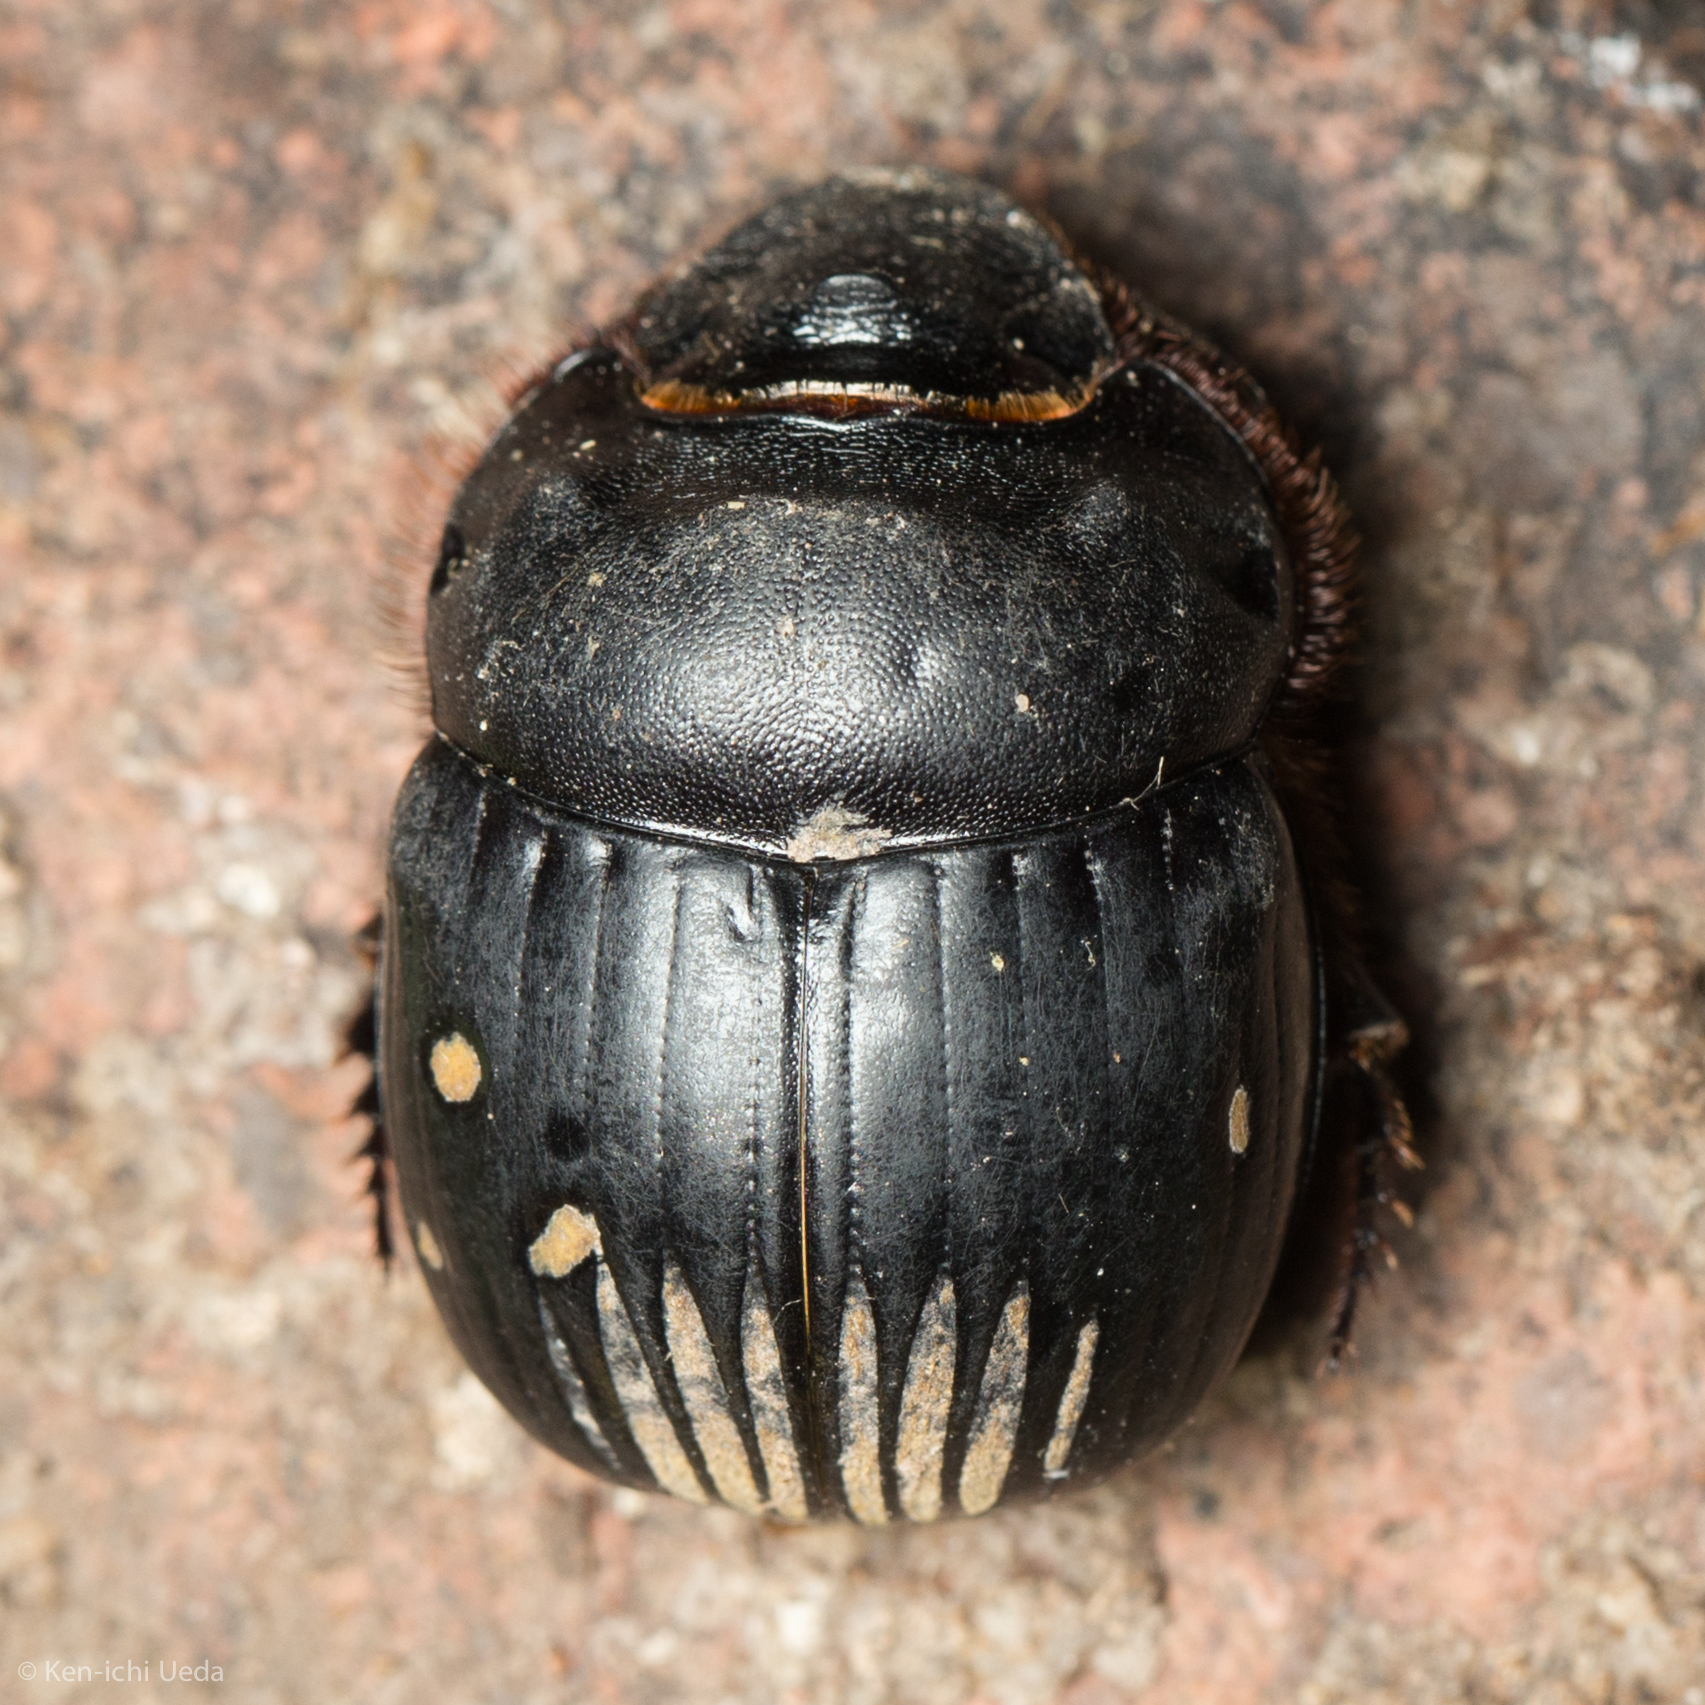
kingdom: Animalia
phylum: Arthropoda
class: Insecta
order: Coleoptera
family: Scarabaeidae
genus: Dichotomius
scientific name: Dichotomius colonicus
